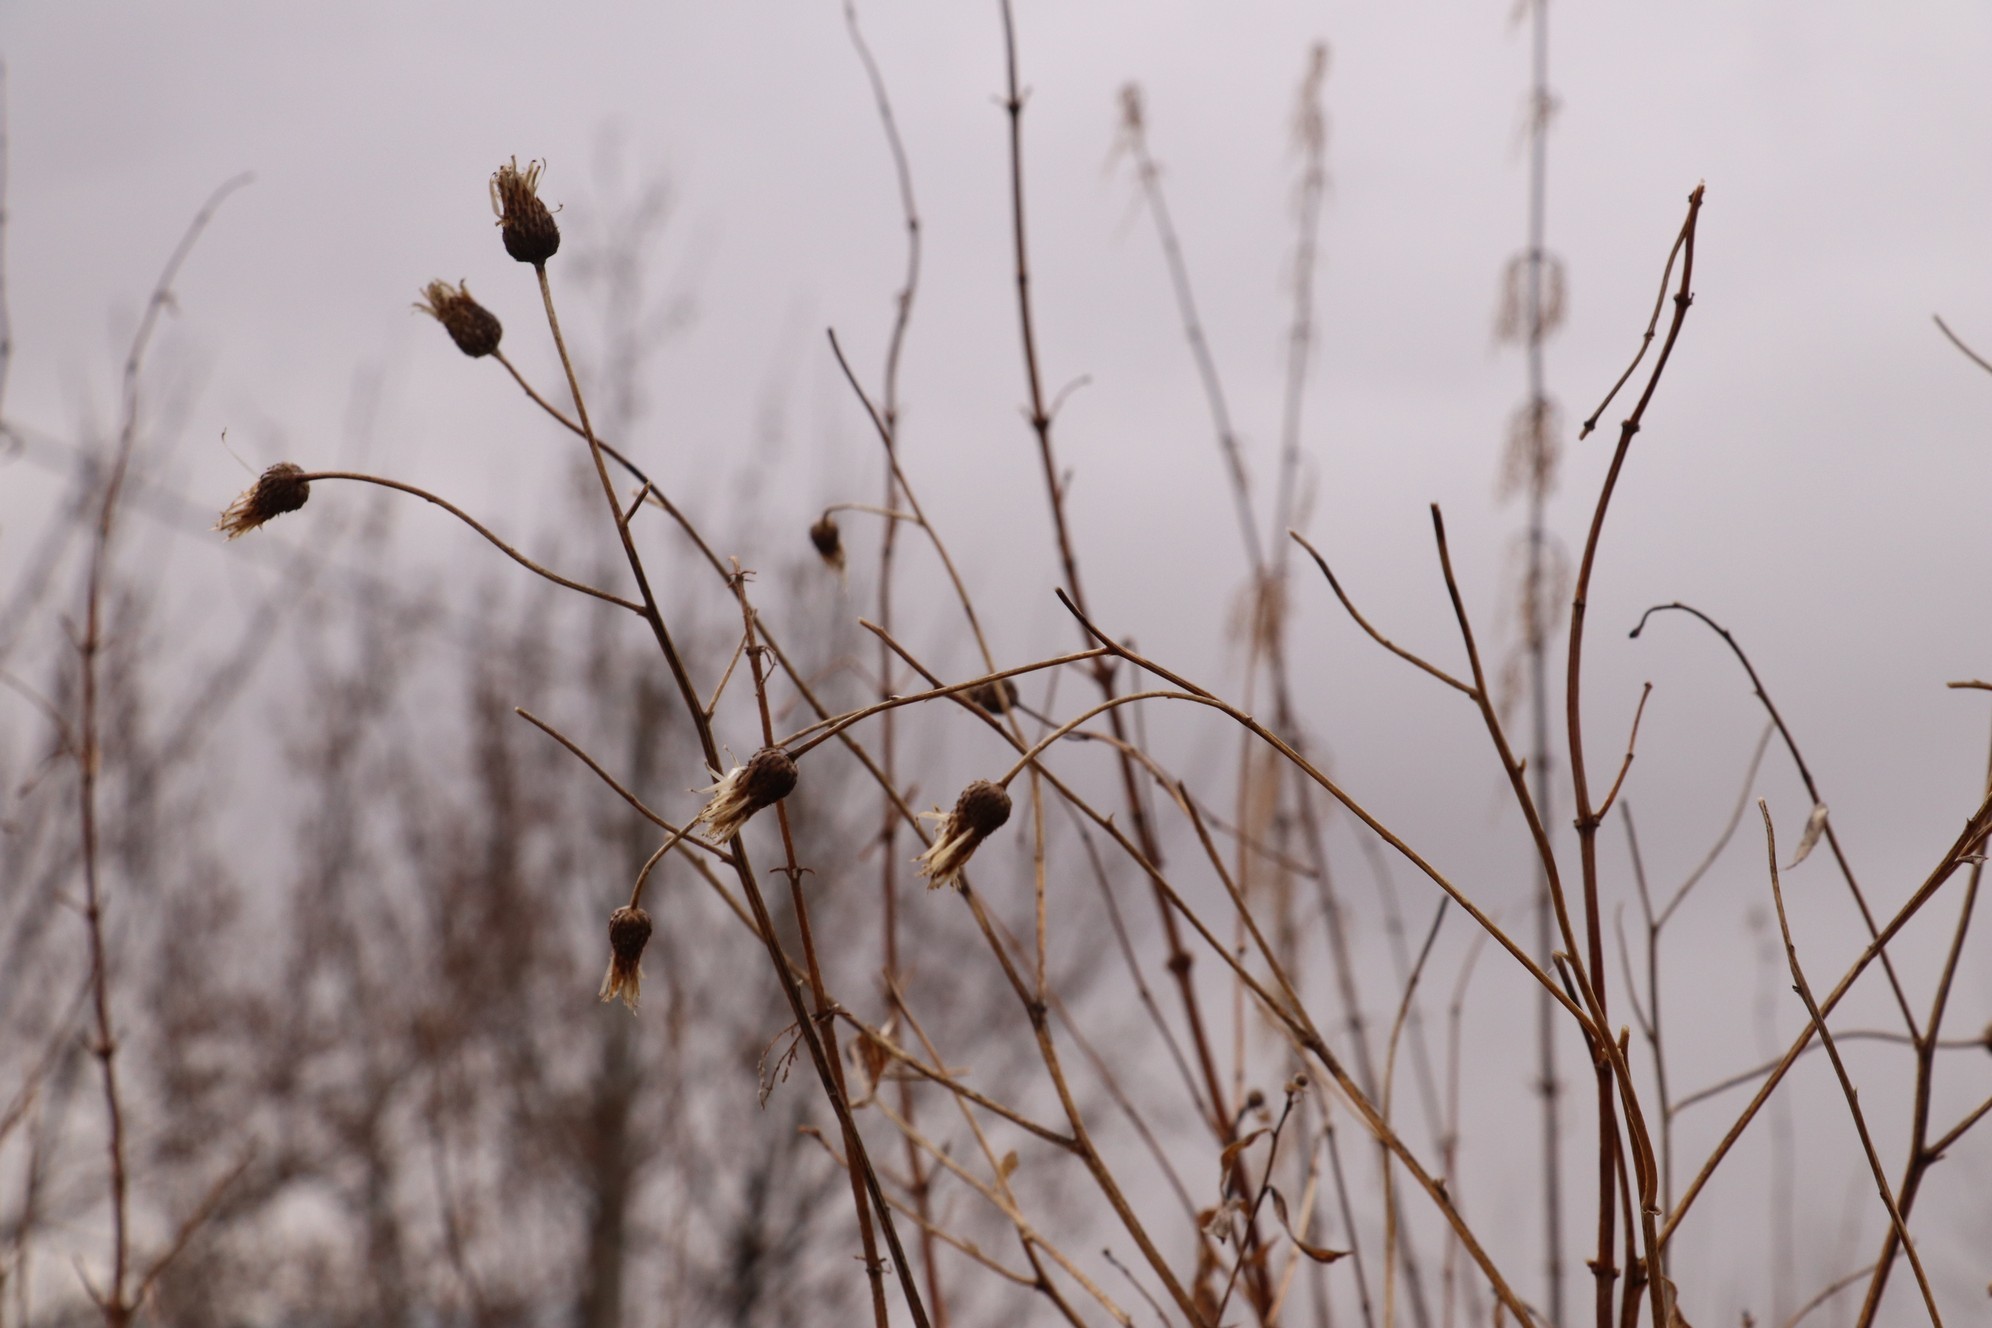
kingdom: Plantae
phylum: Tracheophyta
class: Magnoliopsida
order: Asterales
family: Asteraceae
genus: Cirsium
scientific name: Cirsium arvense
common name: Creeping thistle
